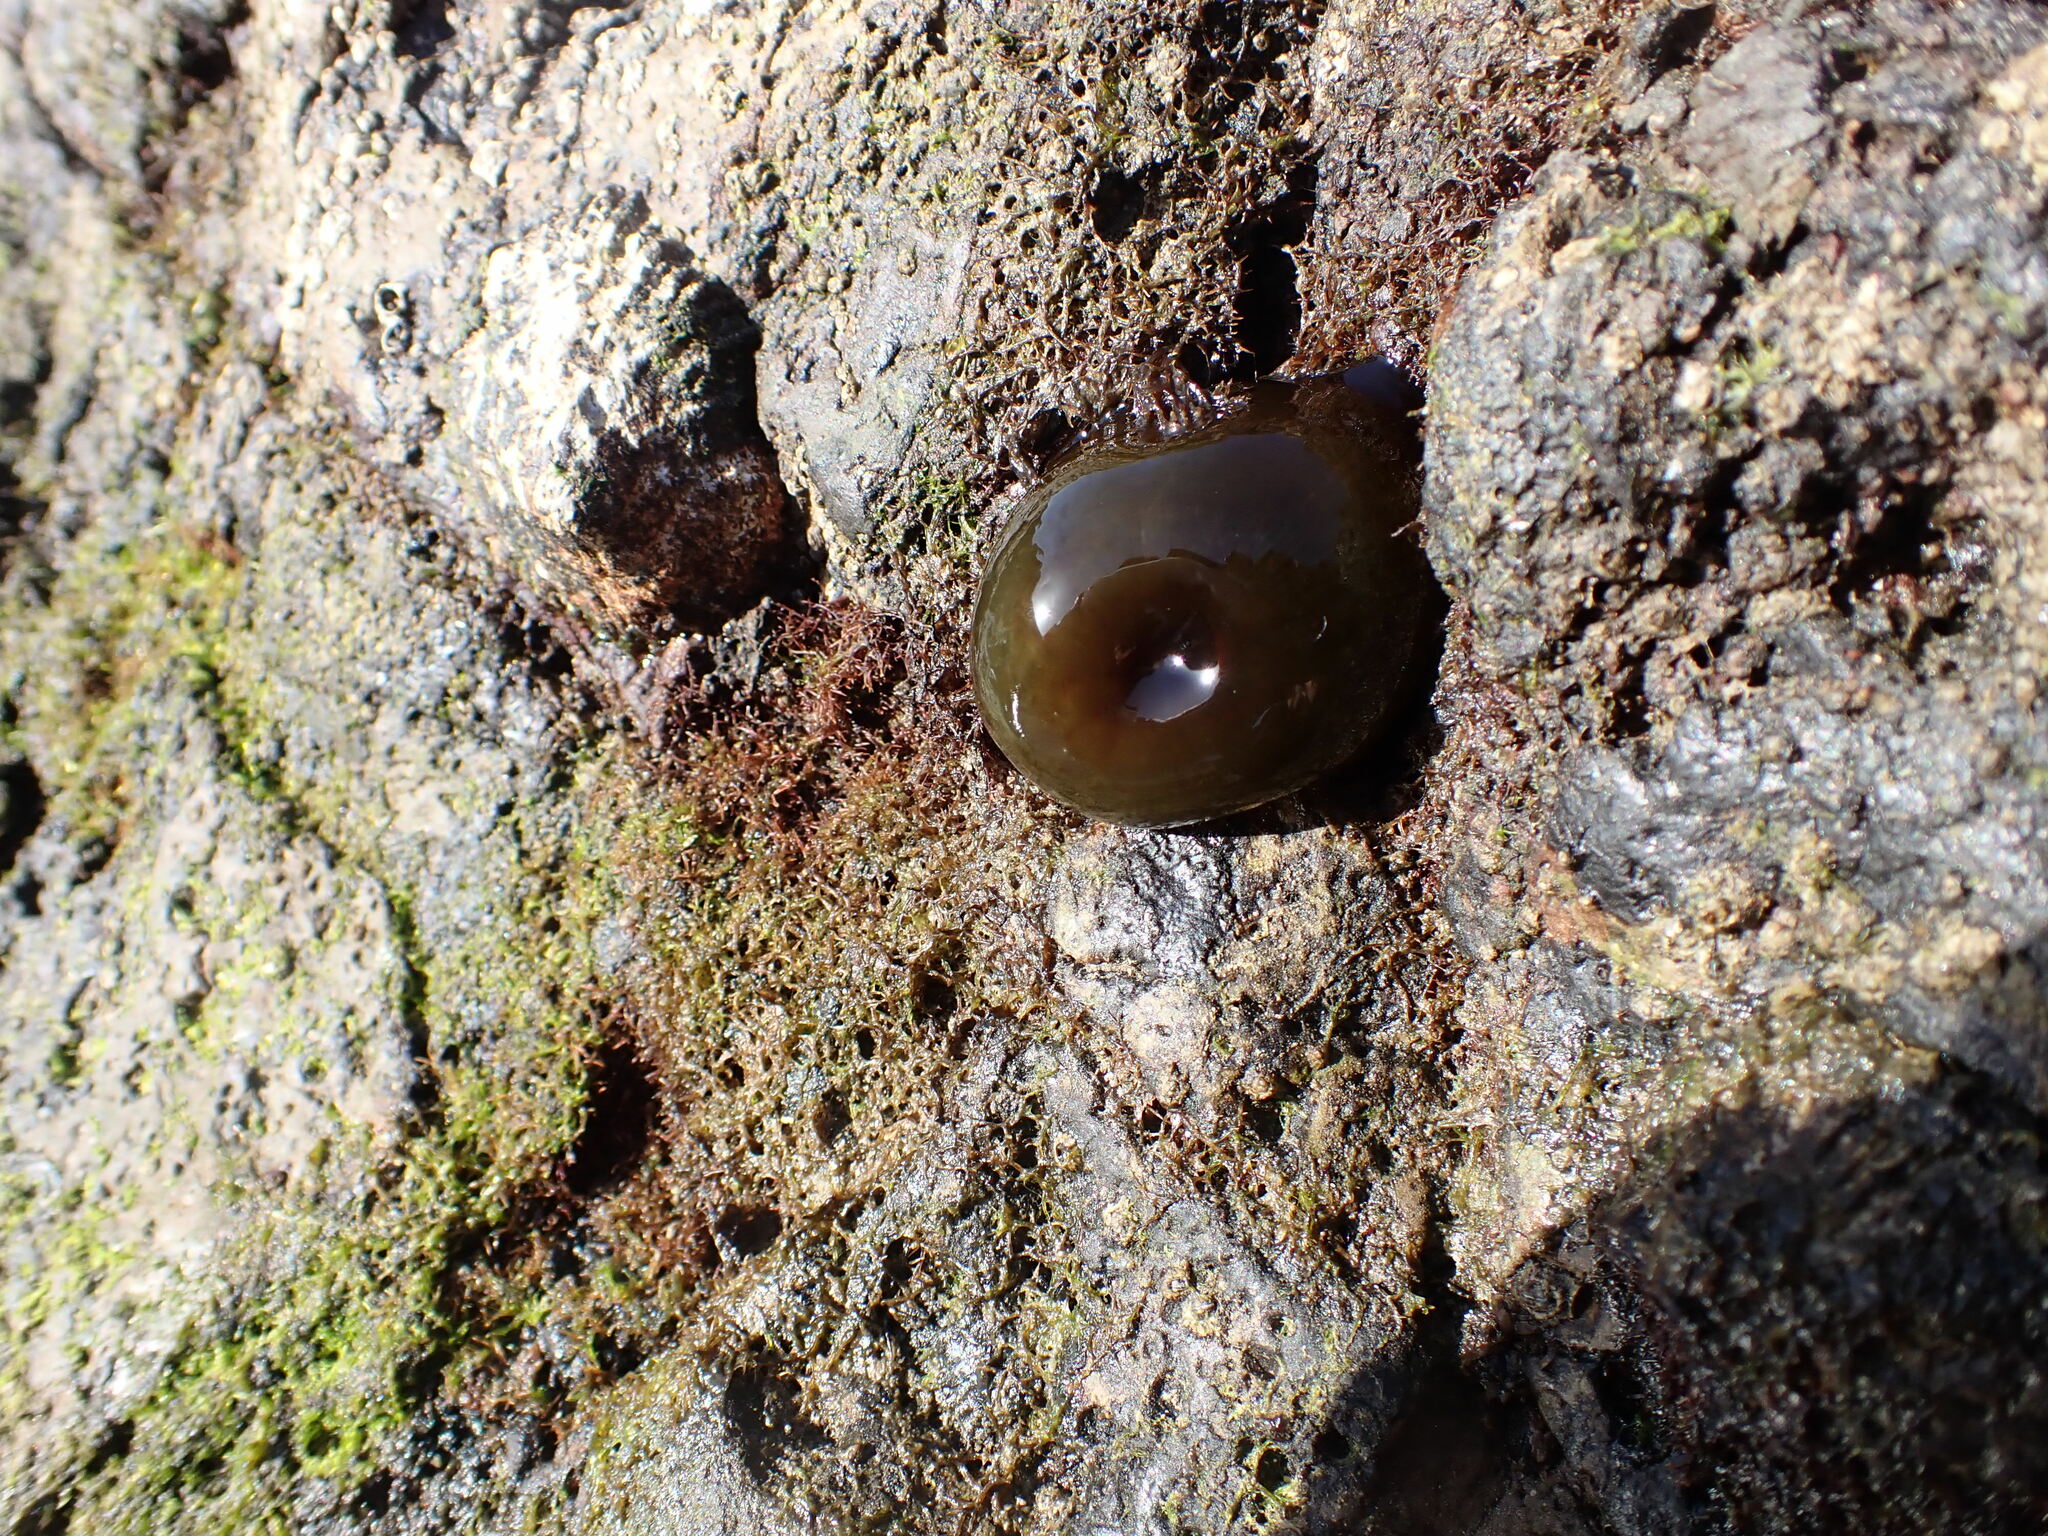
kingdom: Animalia
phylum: Cnidaria
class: Anthozoa
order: Actiniaria
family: Actiniidae
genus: Actinia
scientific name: Actinia equina
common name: Beadlet anemone
